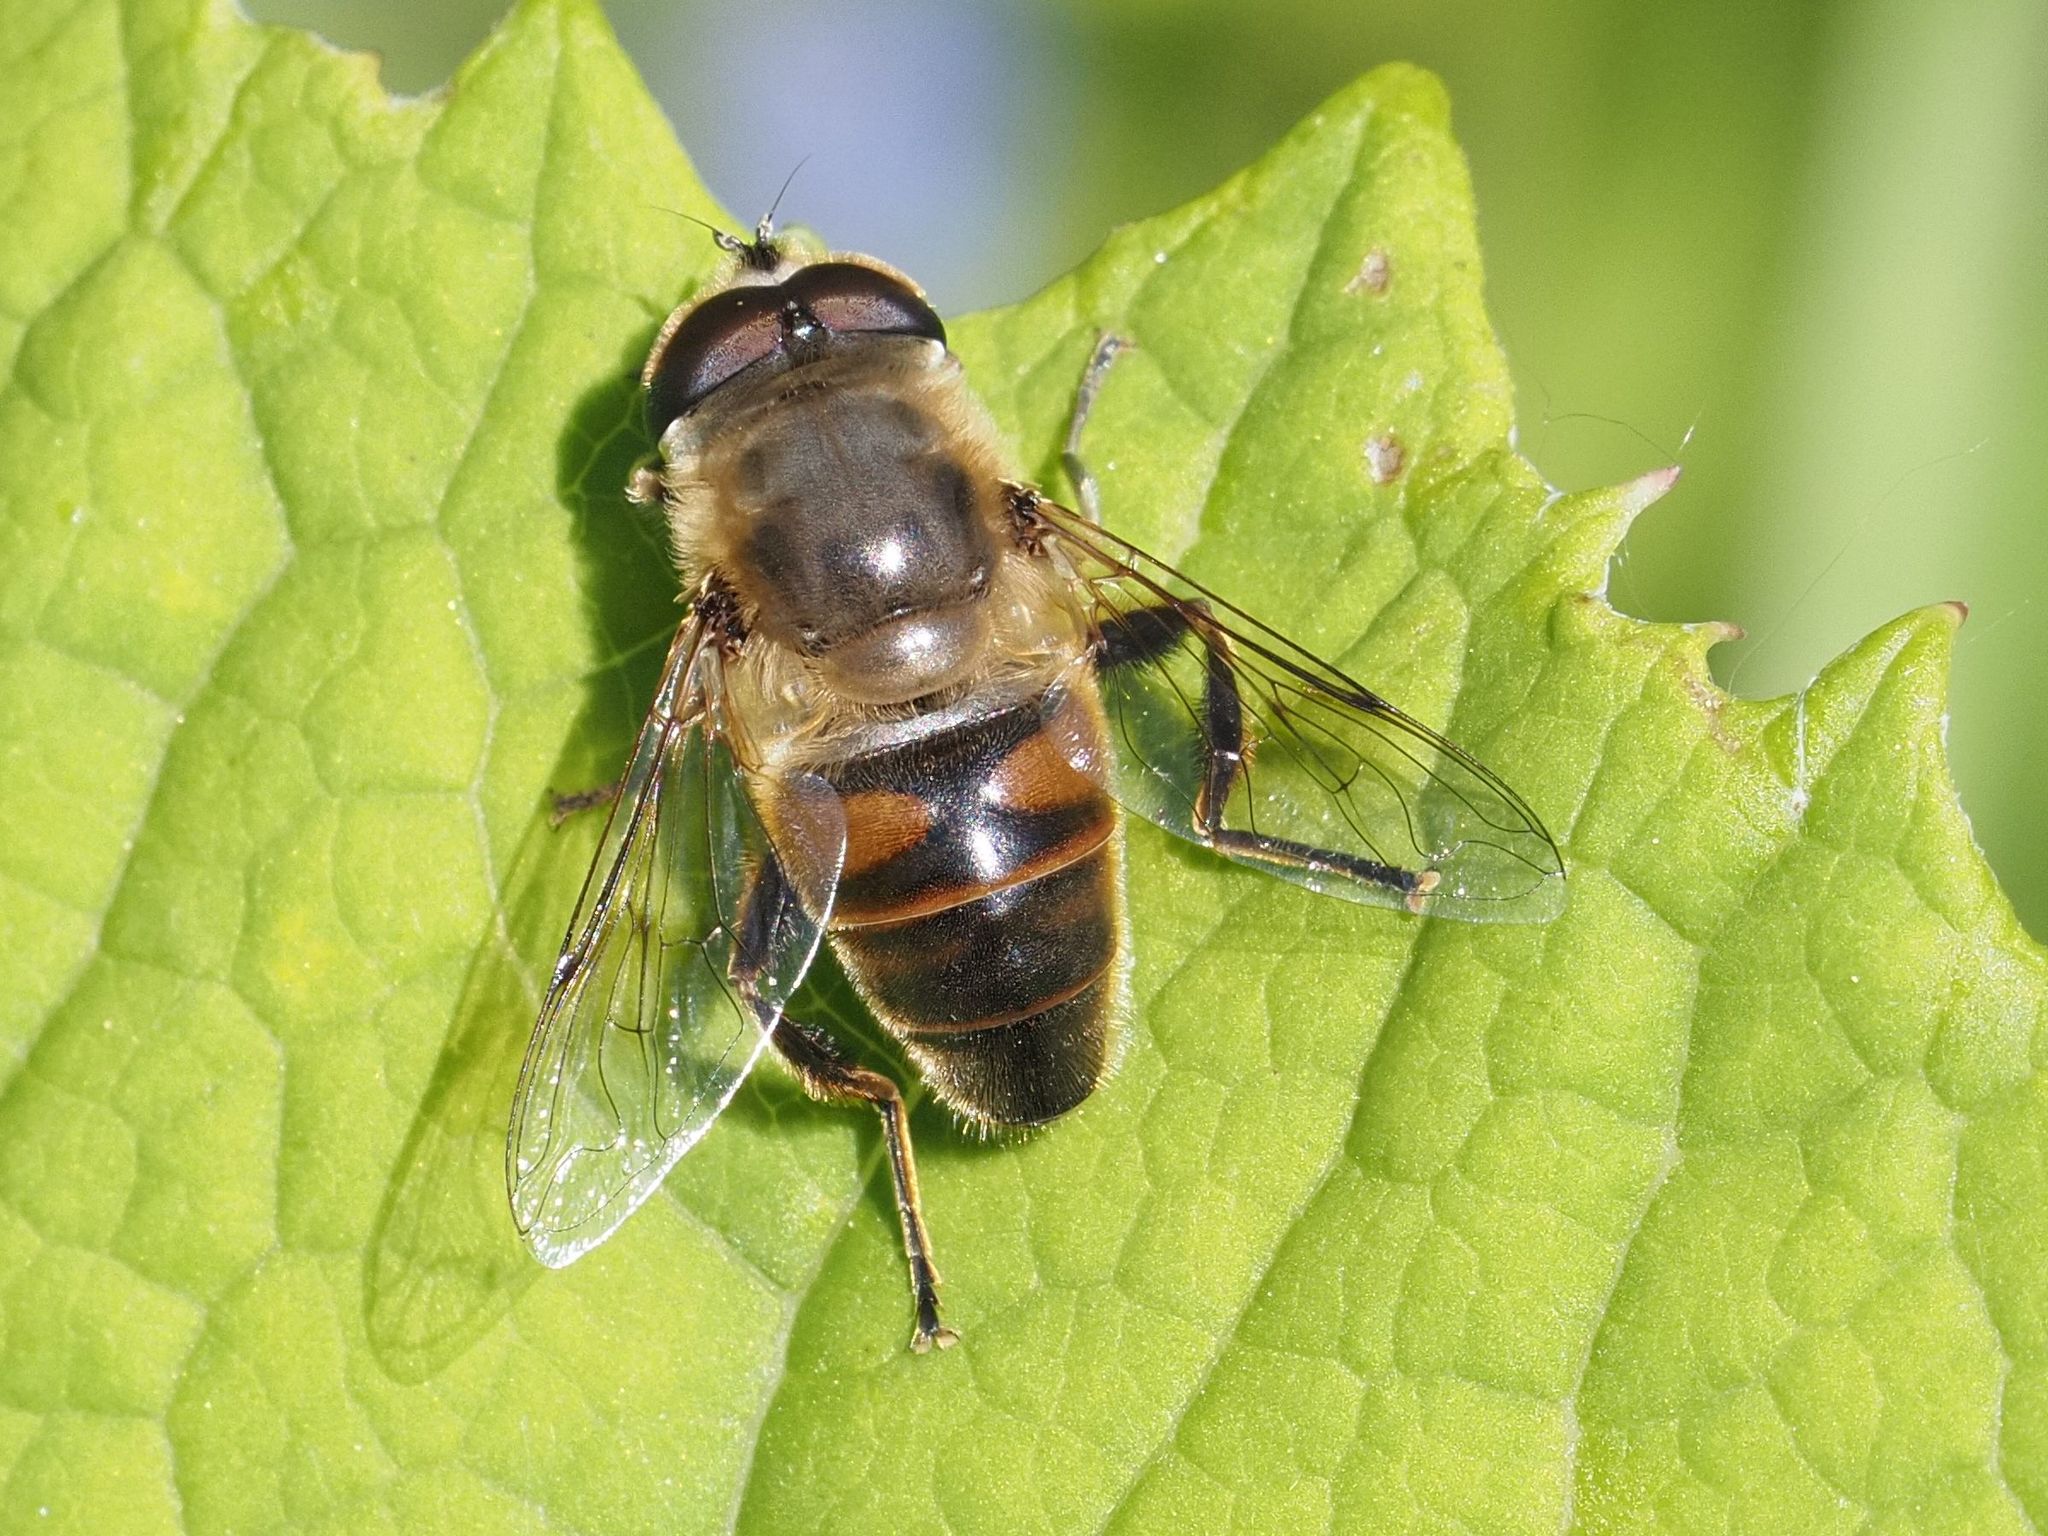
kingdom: Animalia
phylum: Arthropoda
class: Insecta
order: Diptera
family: Syrphidae
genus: Eristalis
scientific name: Eristalis tenax
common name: Drone fly
